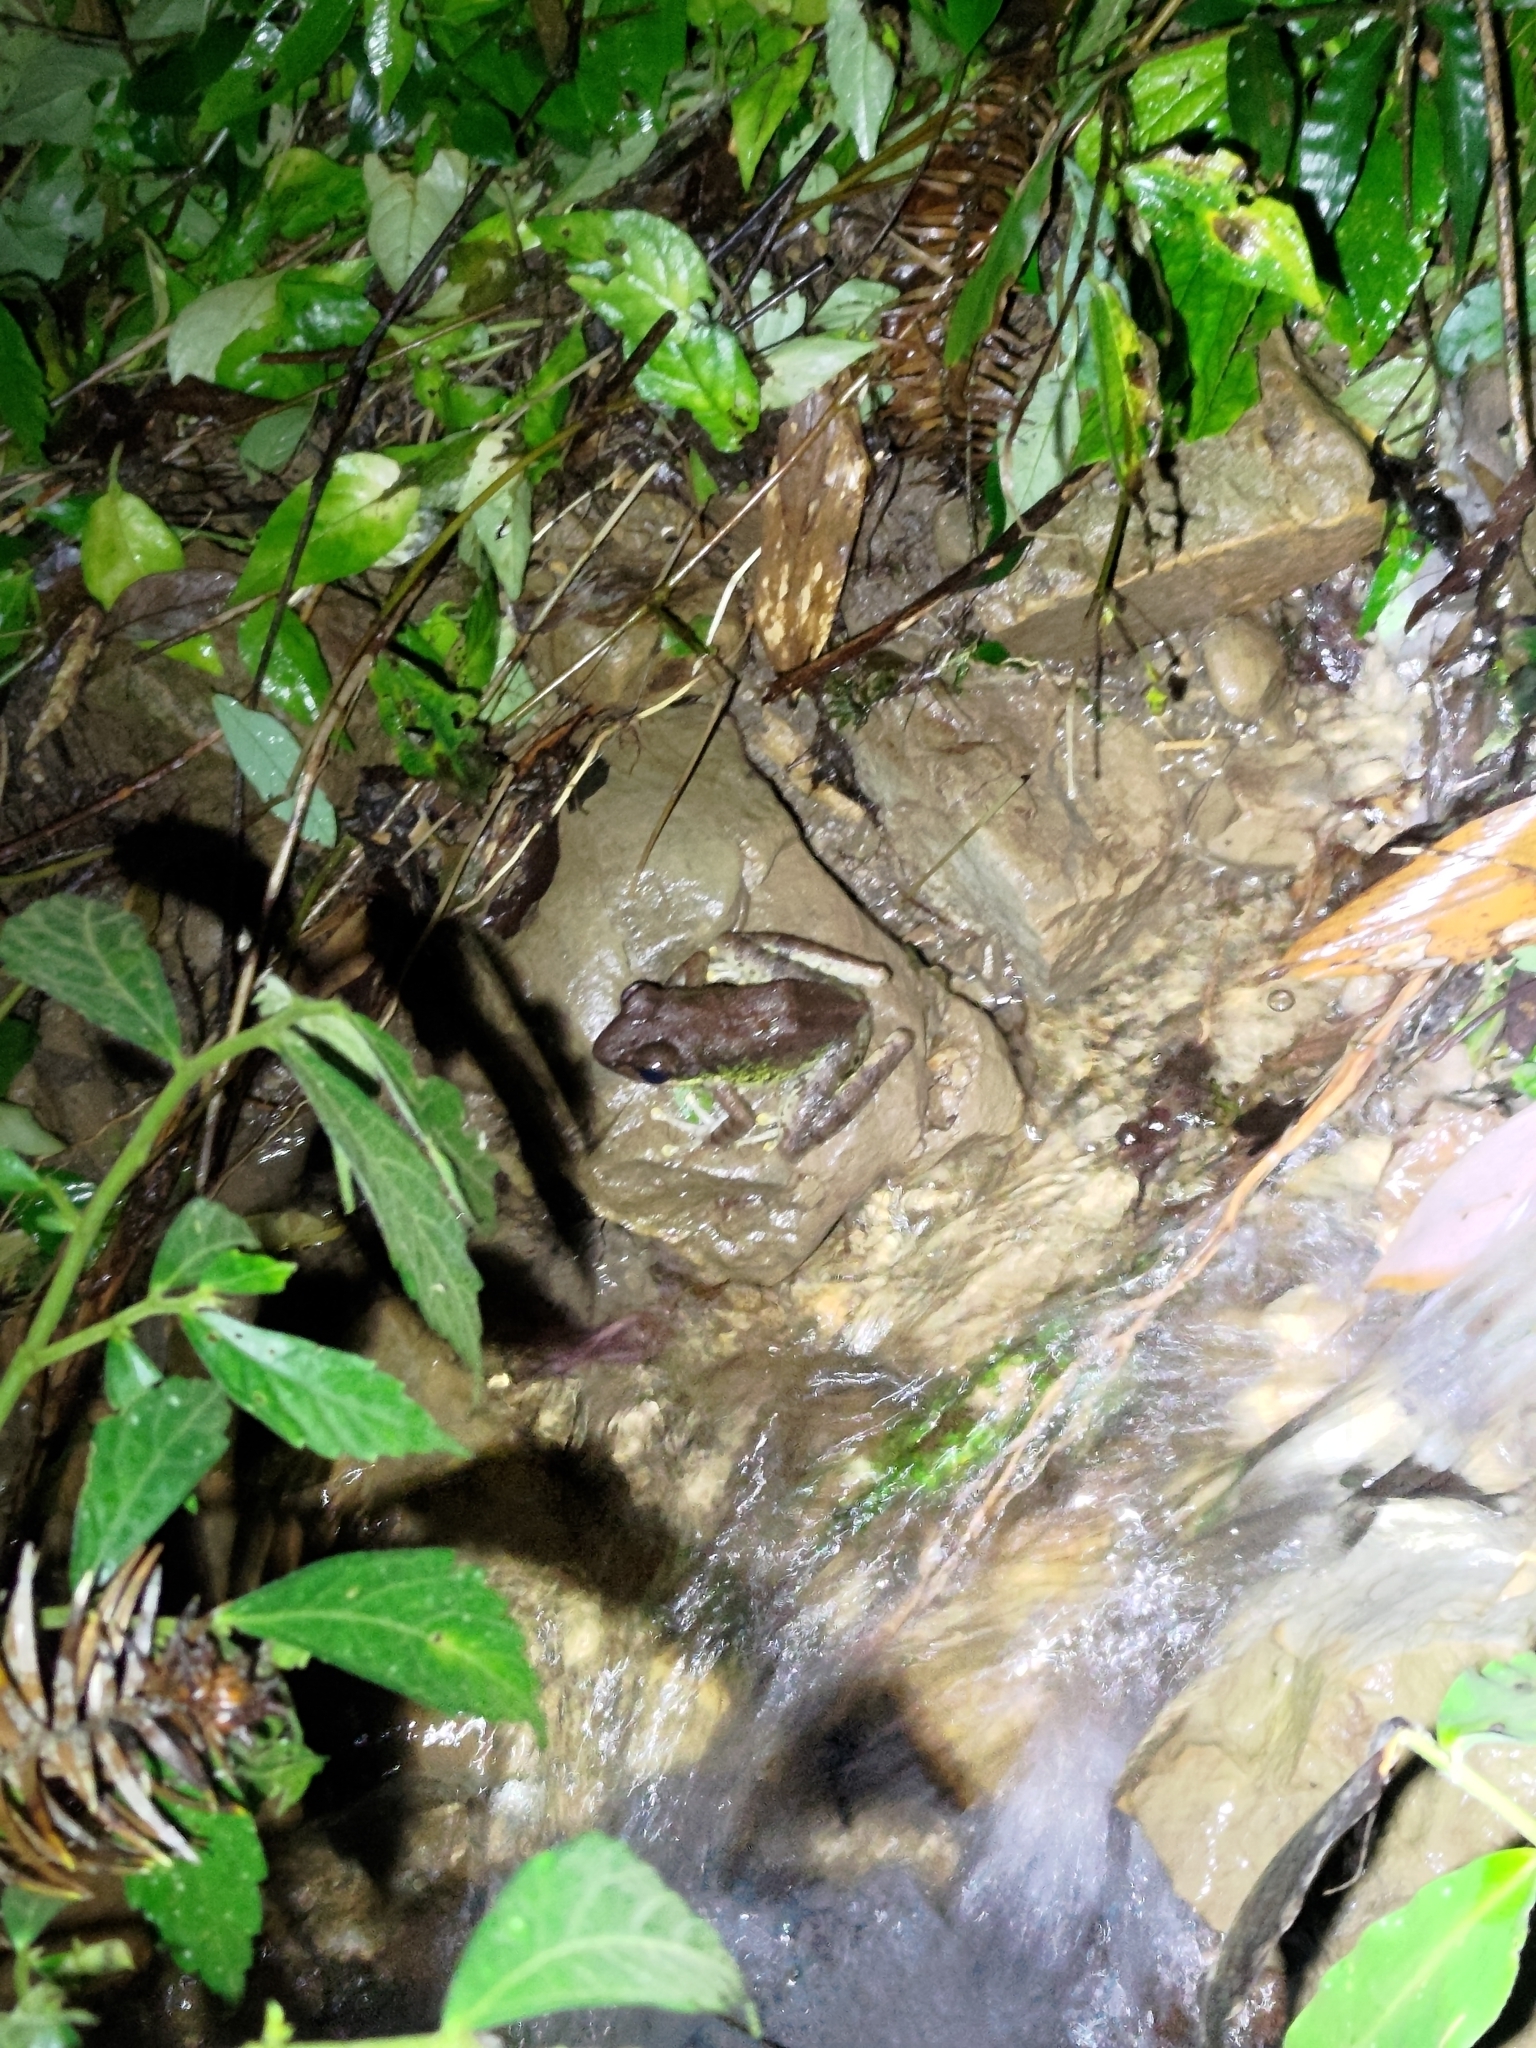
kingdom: Animalia
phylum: Chordata
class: Amphibia
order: Anura
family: Ranidae
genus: Odorrana
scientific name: Odorrana swinhoana
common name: Bangkimtsing frog
